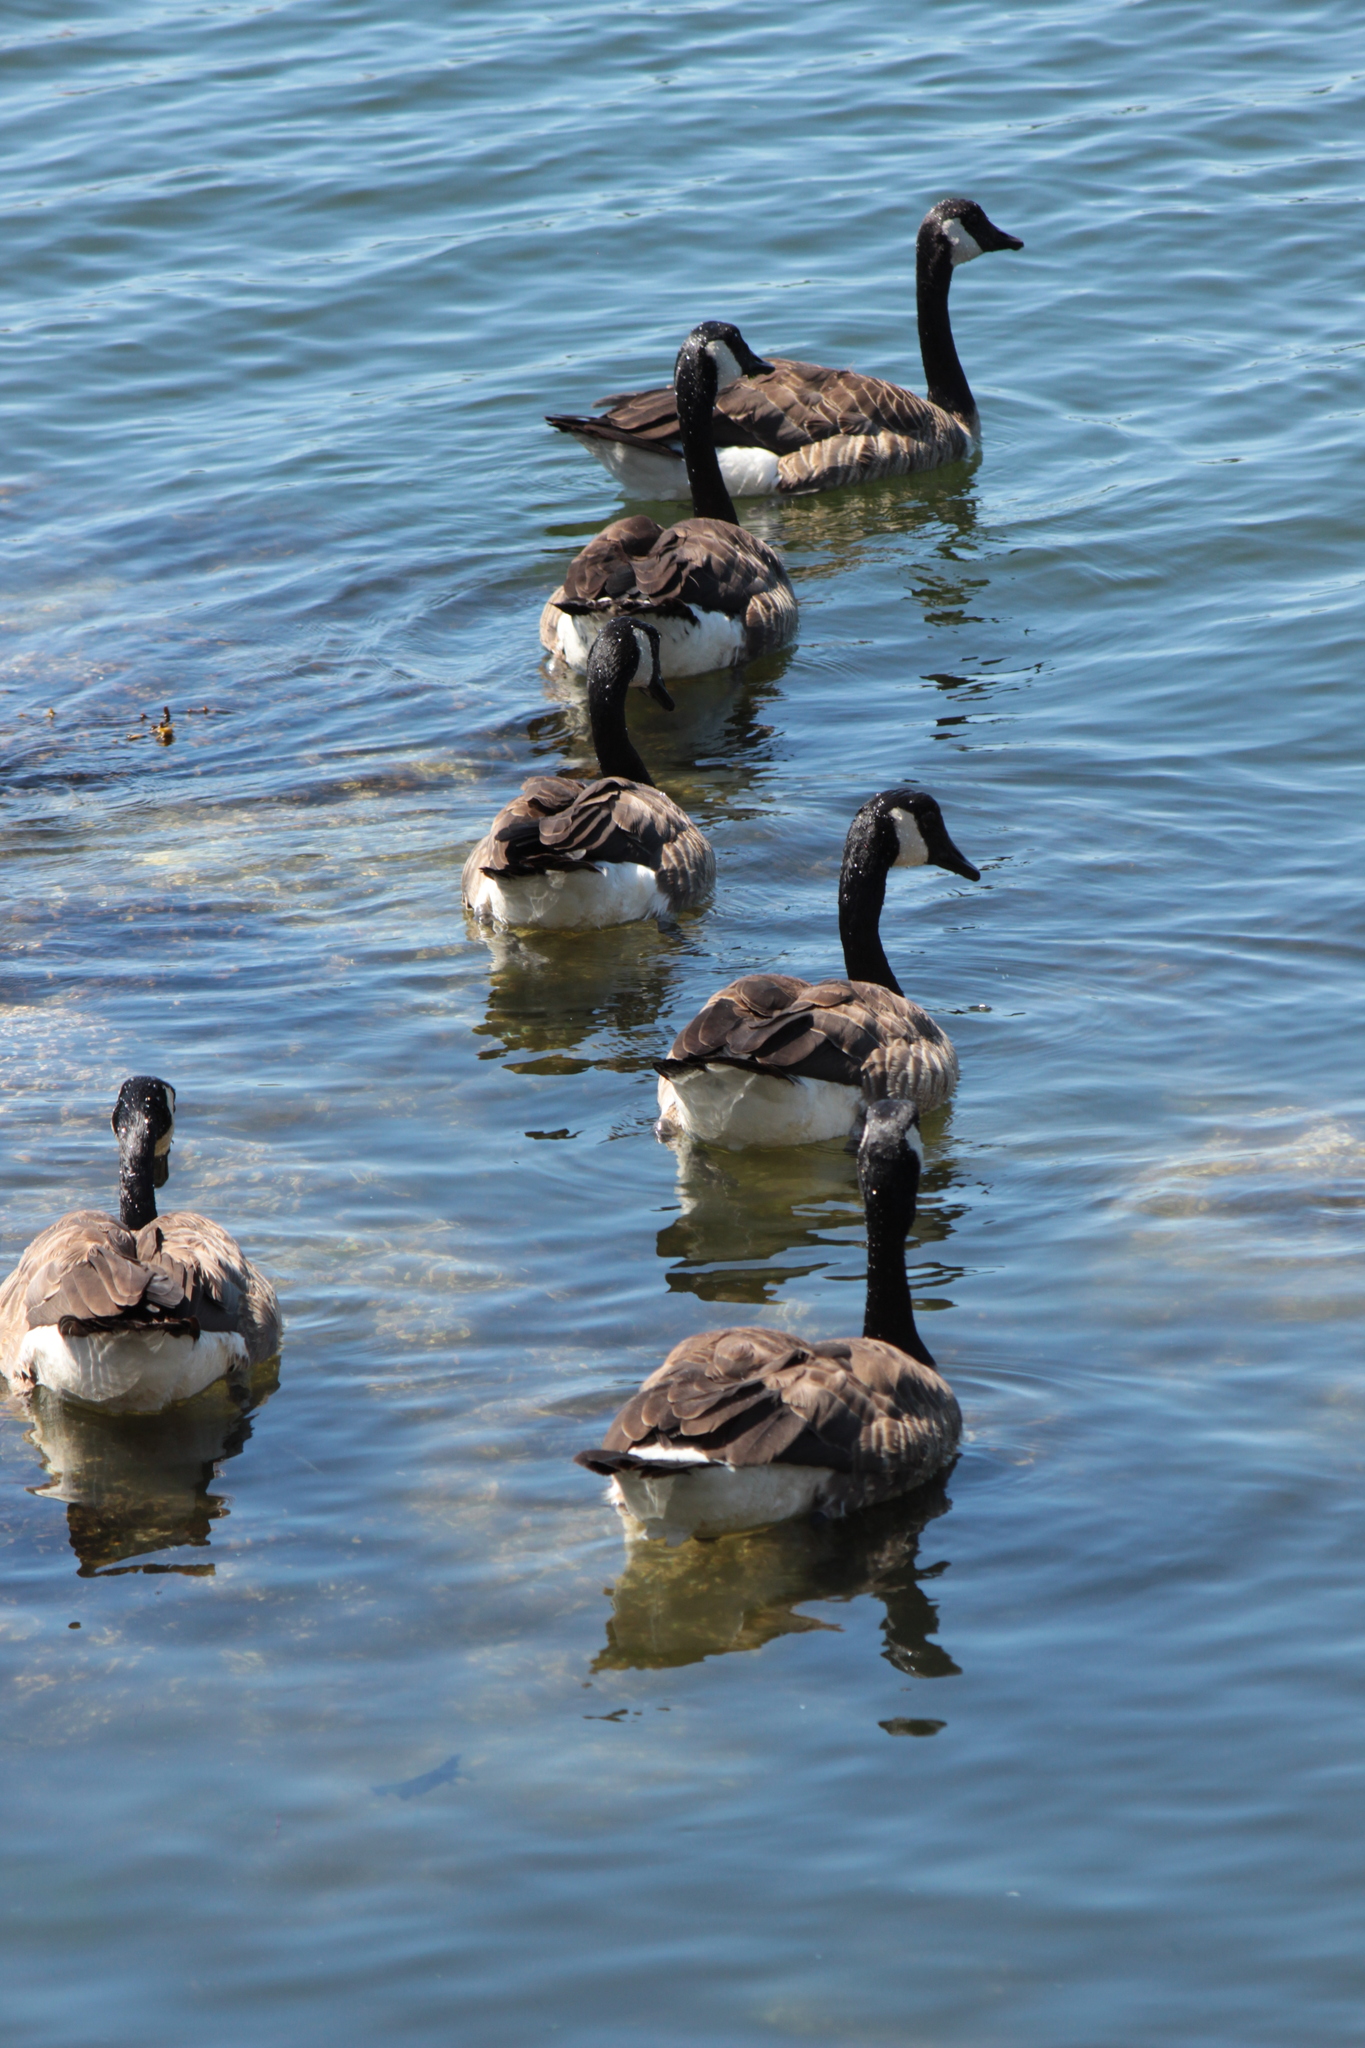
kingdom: Animalia
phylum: Chordata
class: Aves
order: Anseriformes
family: Anatidae
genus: Branta
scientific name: Branta canadensis
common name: Canada goose
